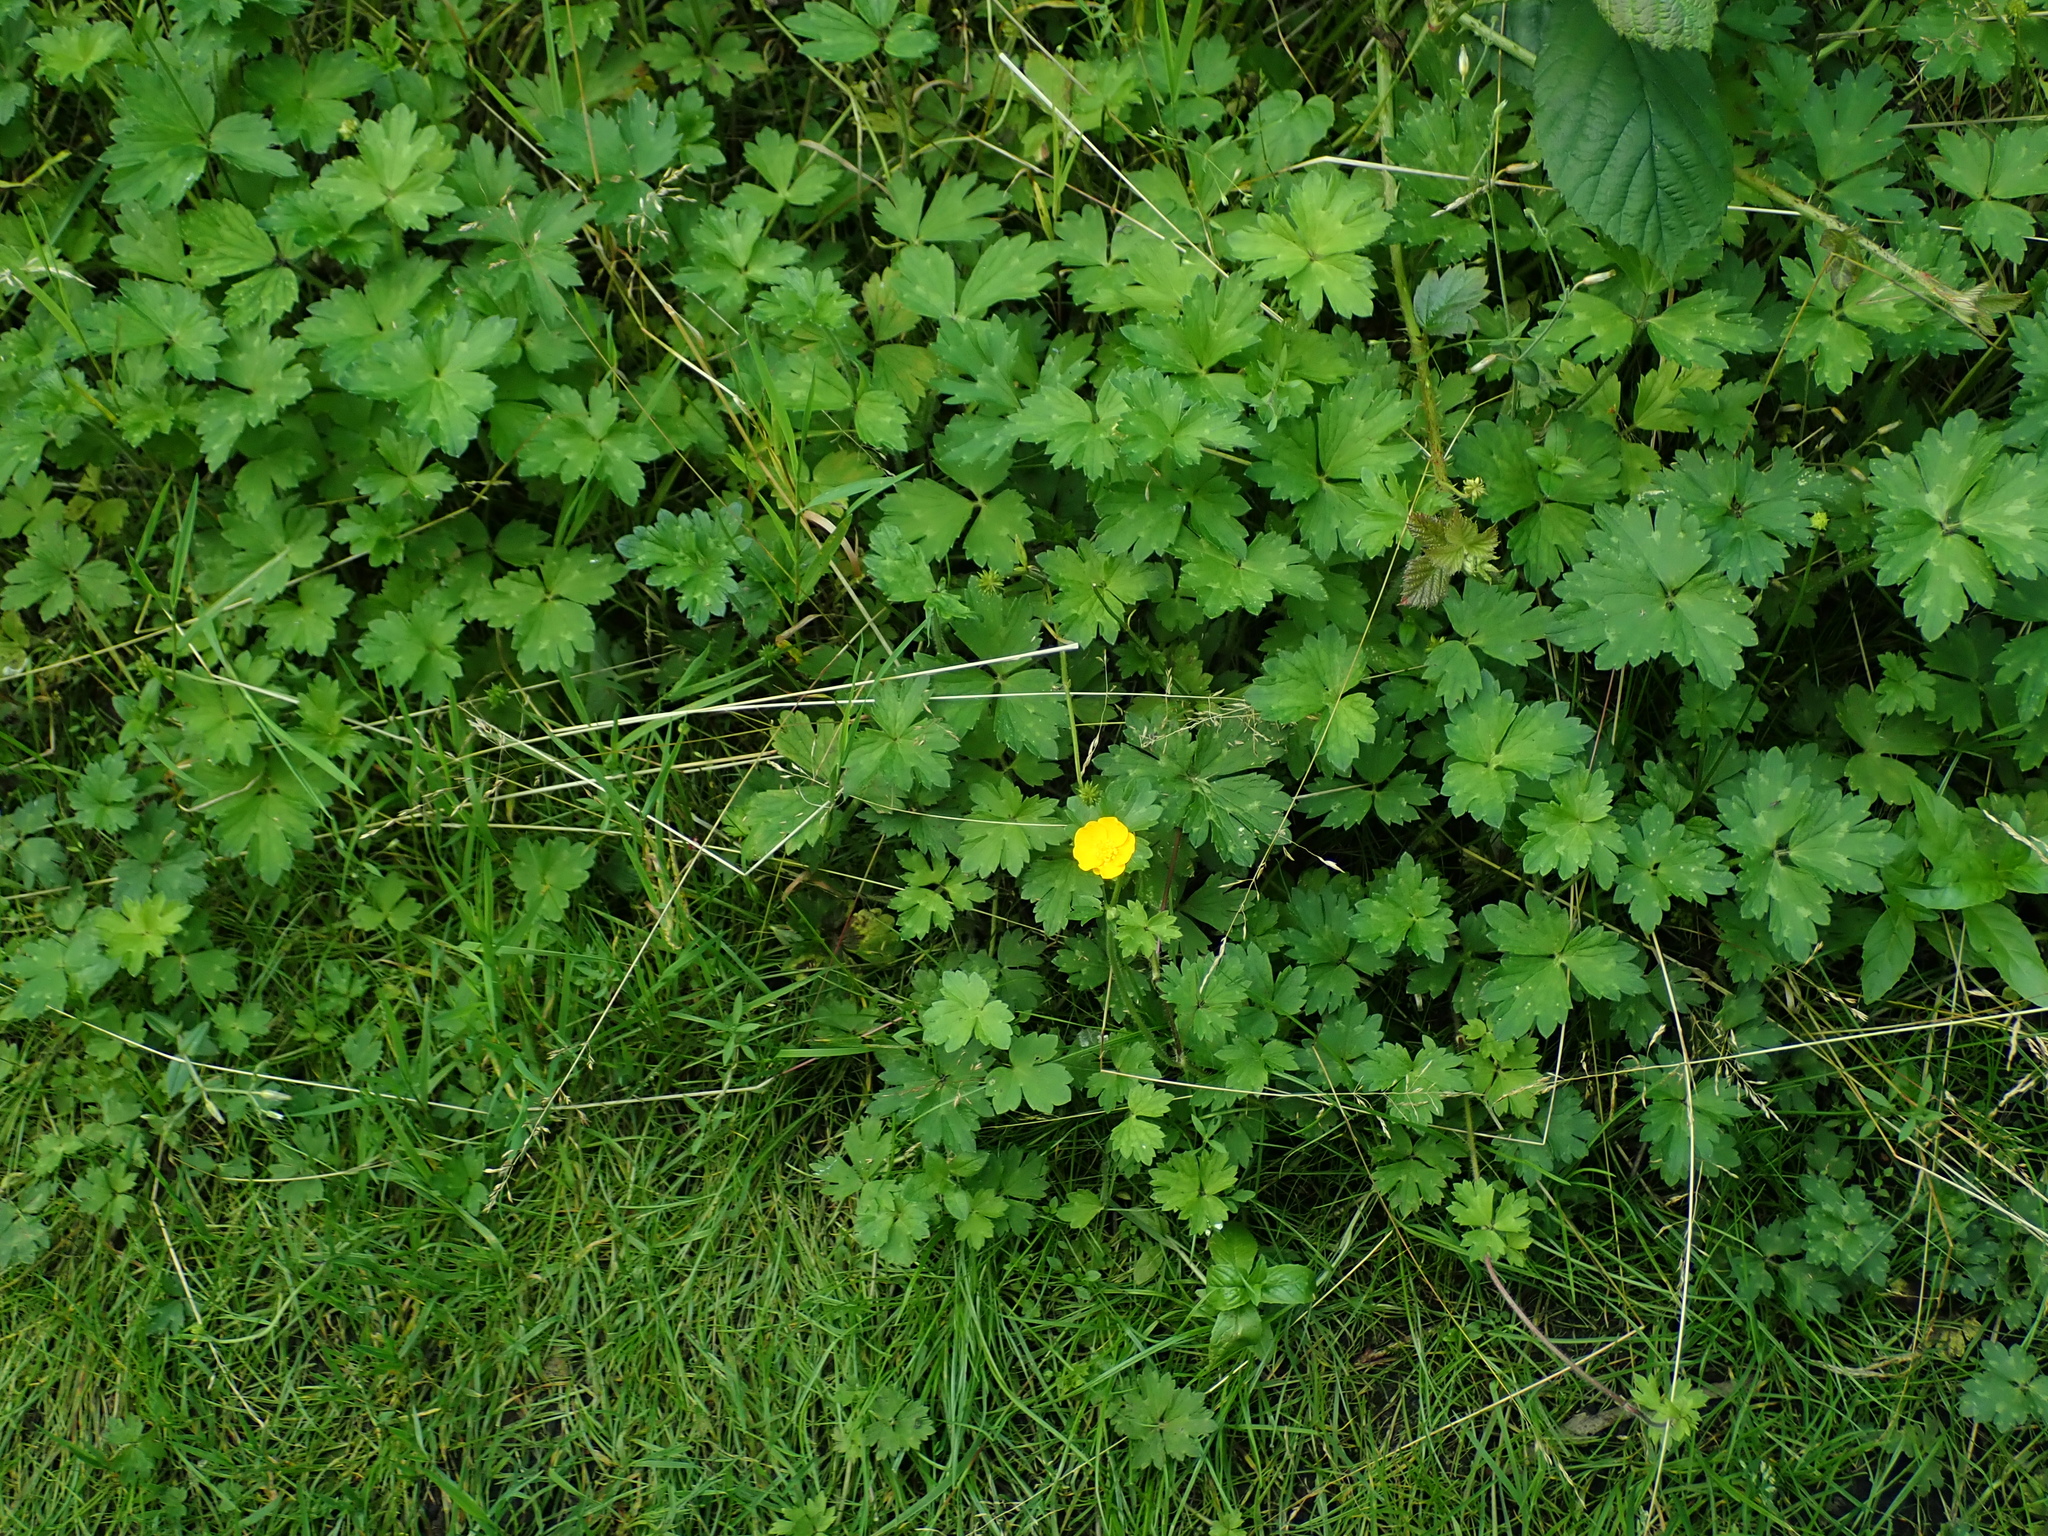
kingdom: Plantae
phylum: Tracheophyta
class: Magnoliopsida
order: Ranunculales
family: Ranunculaceae
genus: Ranunculus
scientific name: Ranunculus repens
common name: Creeping buttercup
